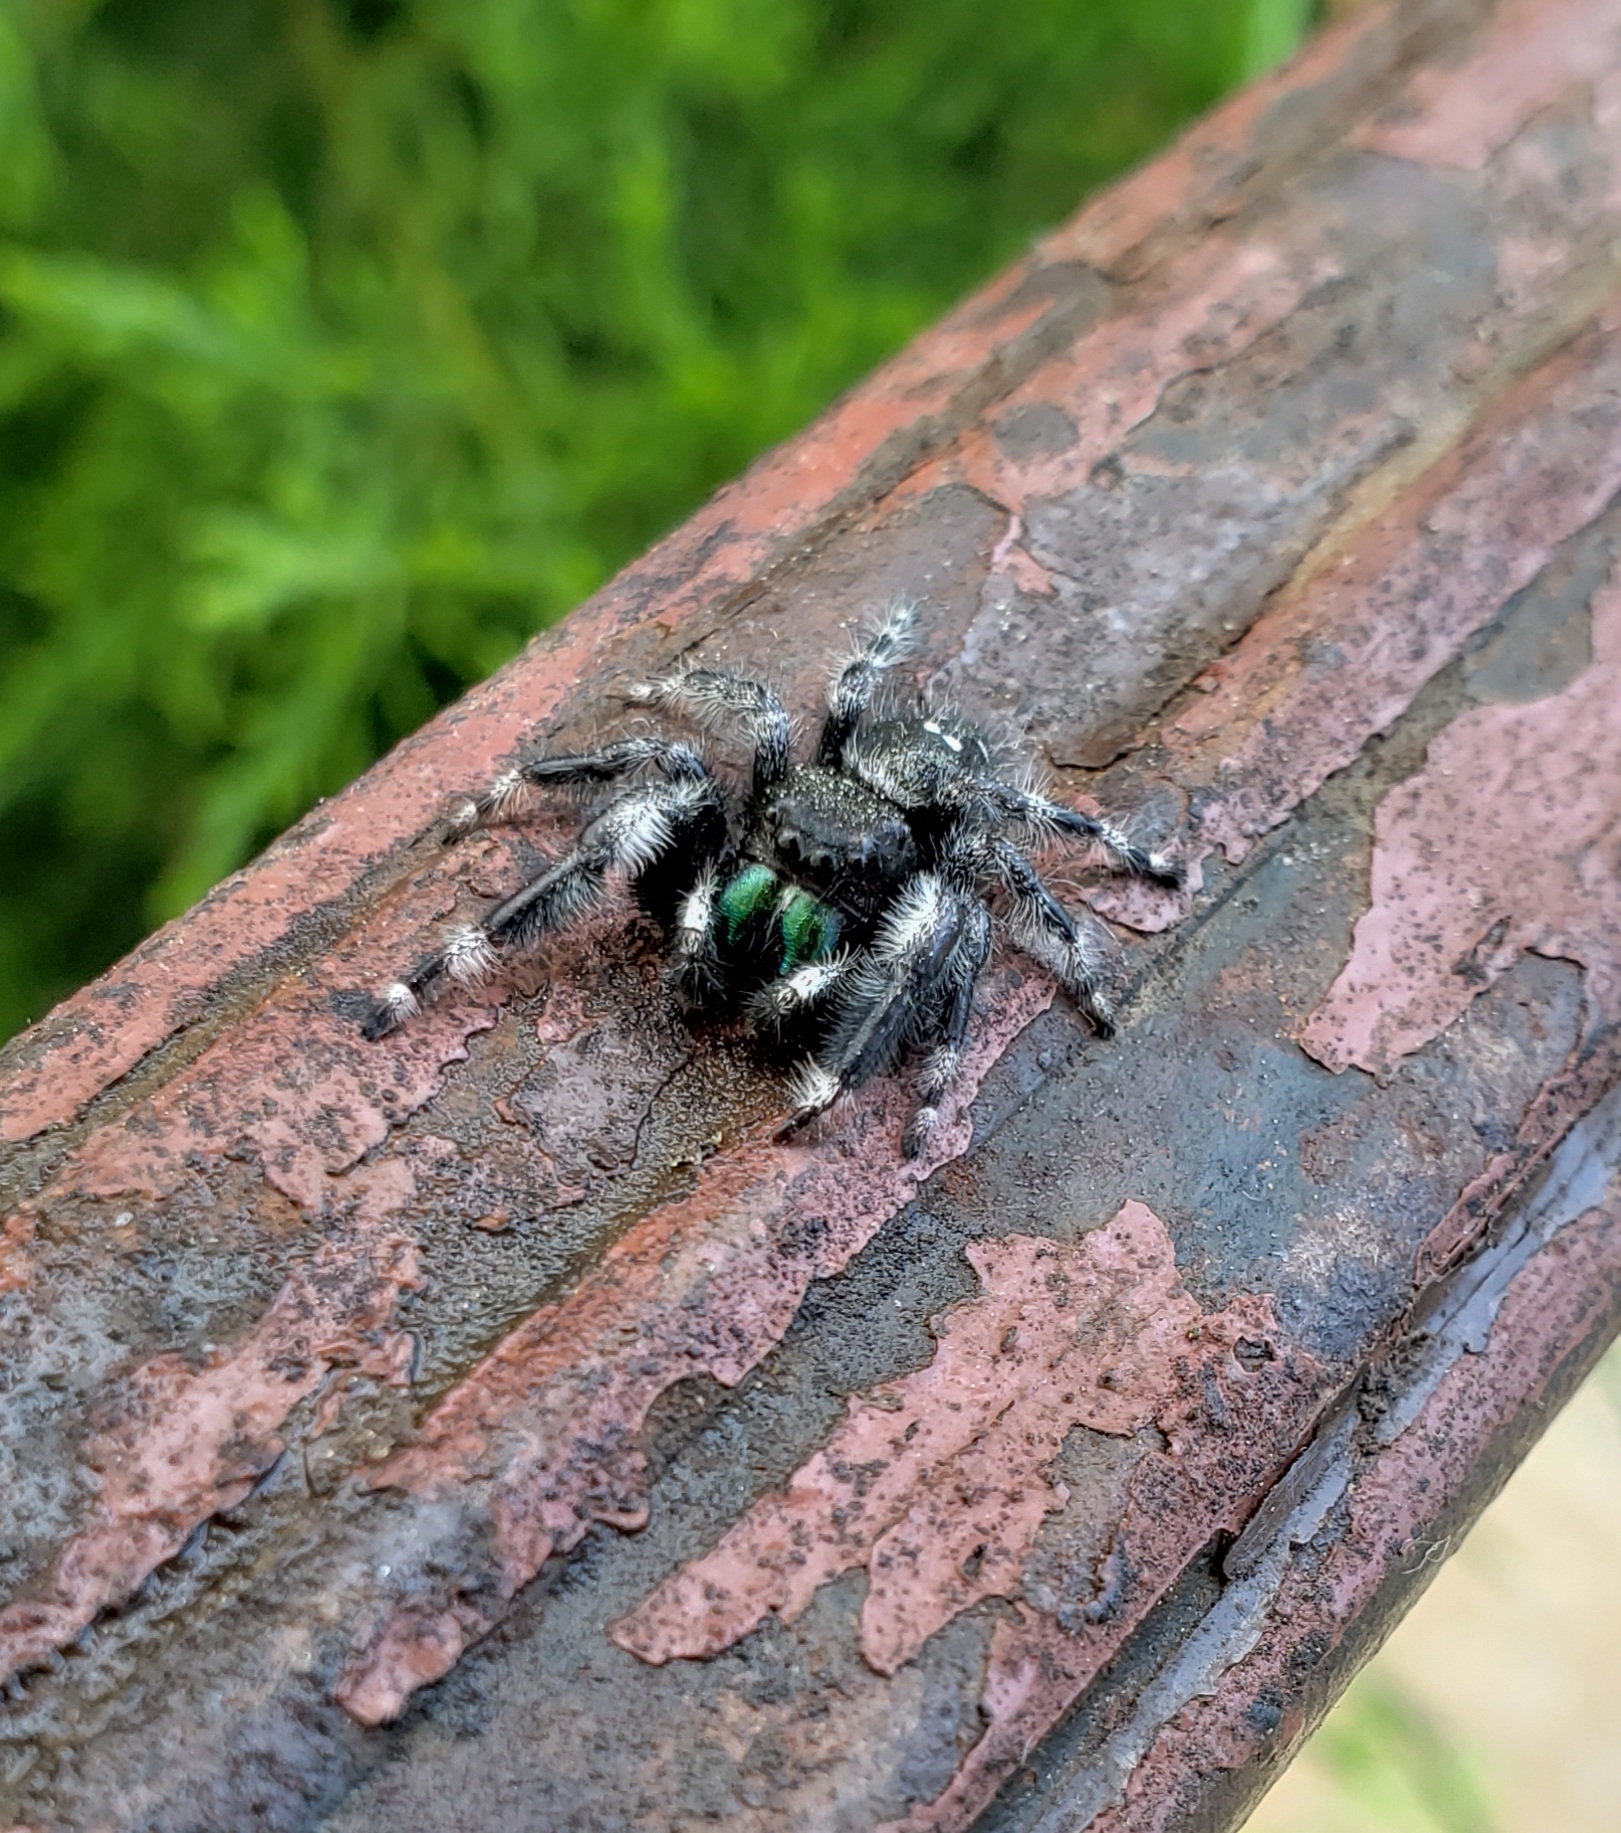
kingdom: Animalia
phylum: Arthropoda
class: Arachnida
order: Araneae
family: Salticidae
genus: Phidippus
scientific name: Phidippus audax
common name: Bold jumper
